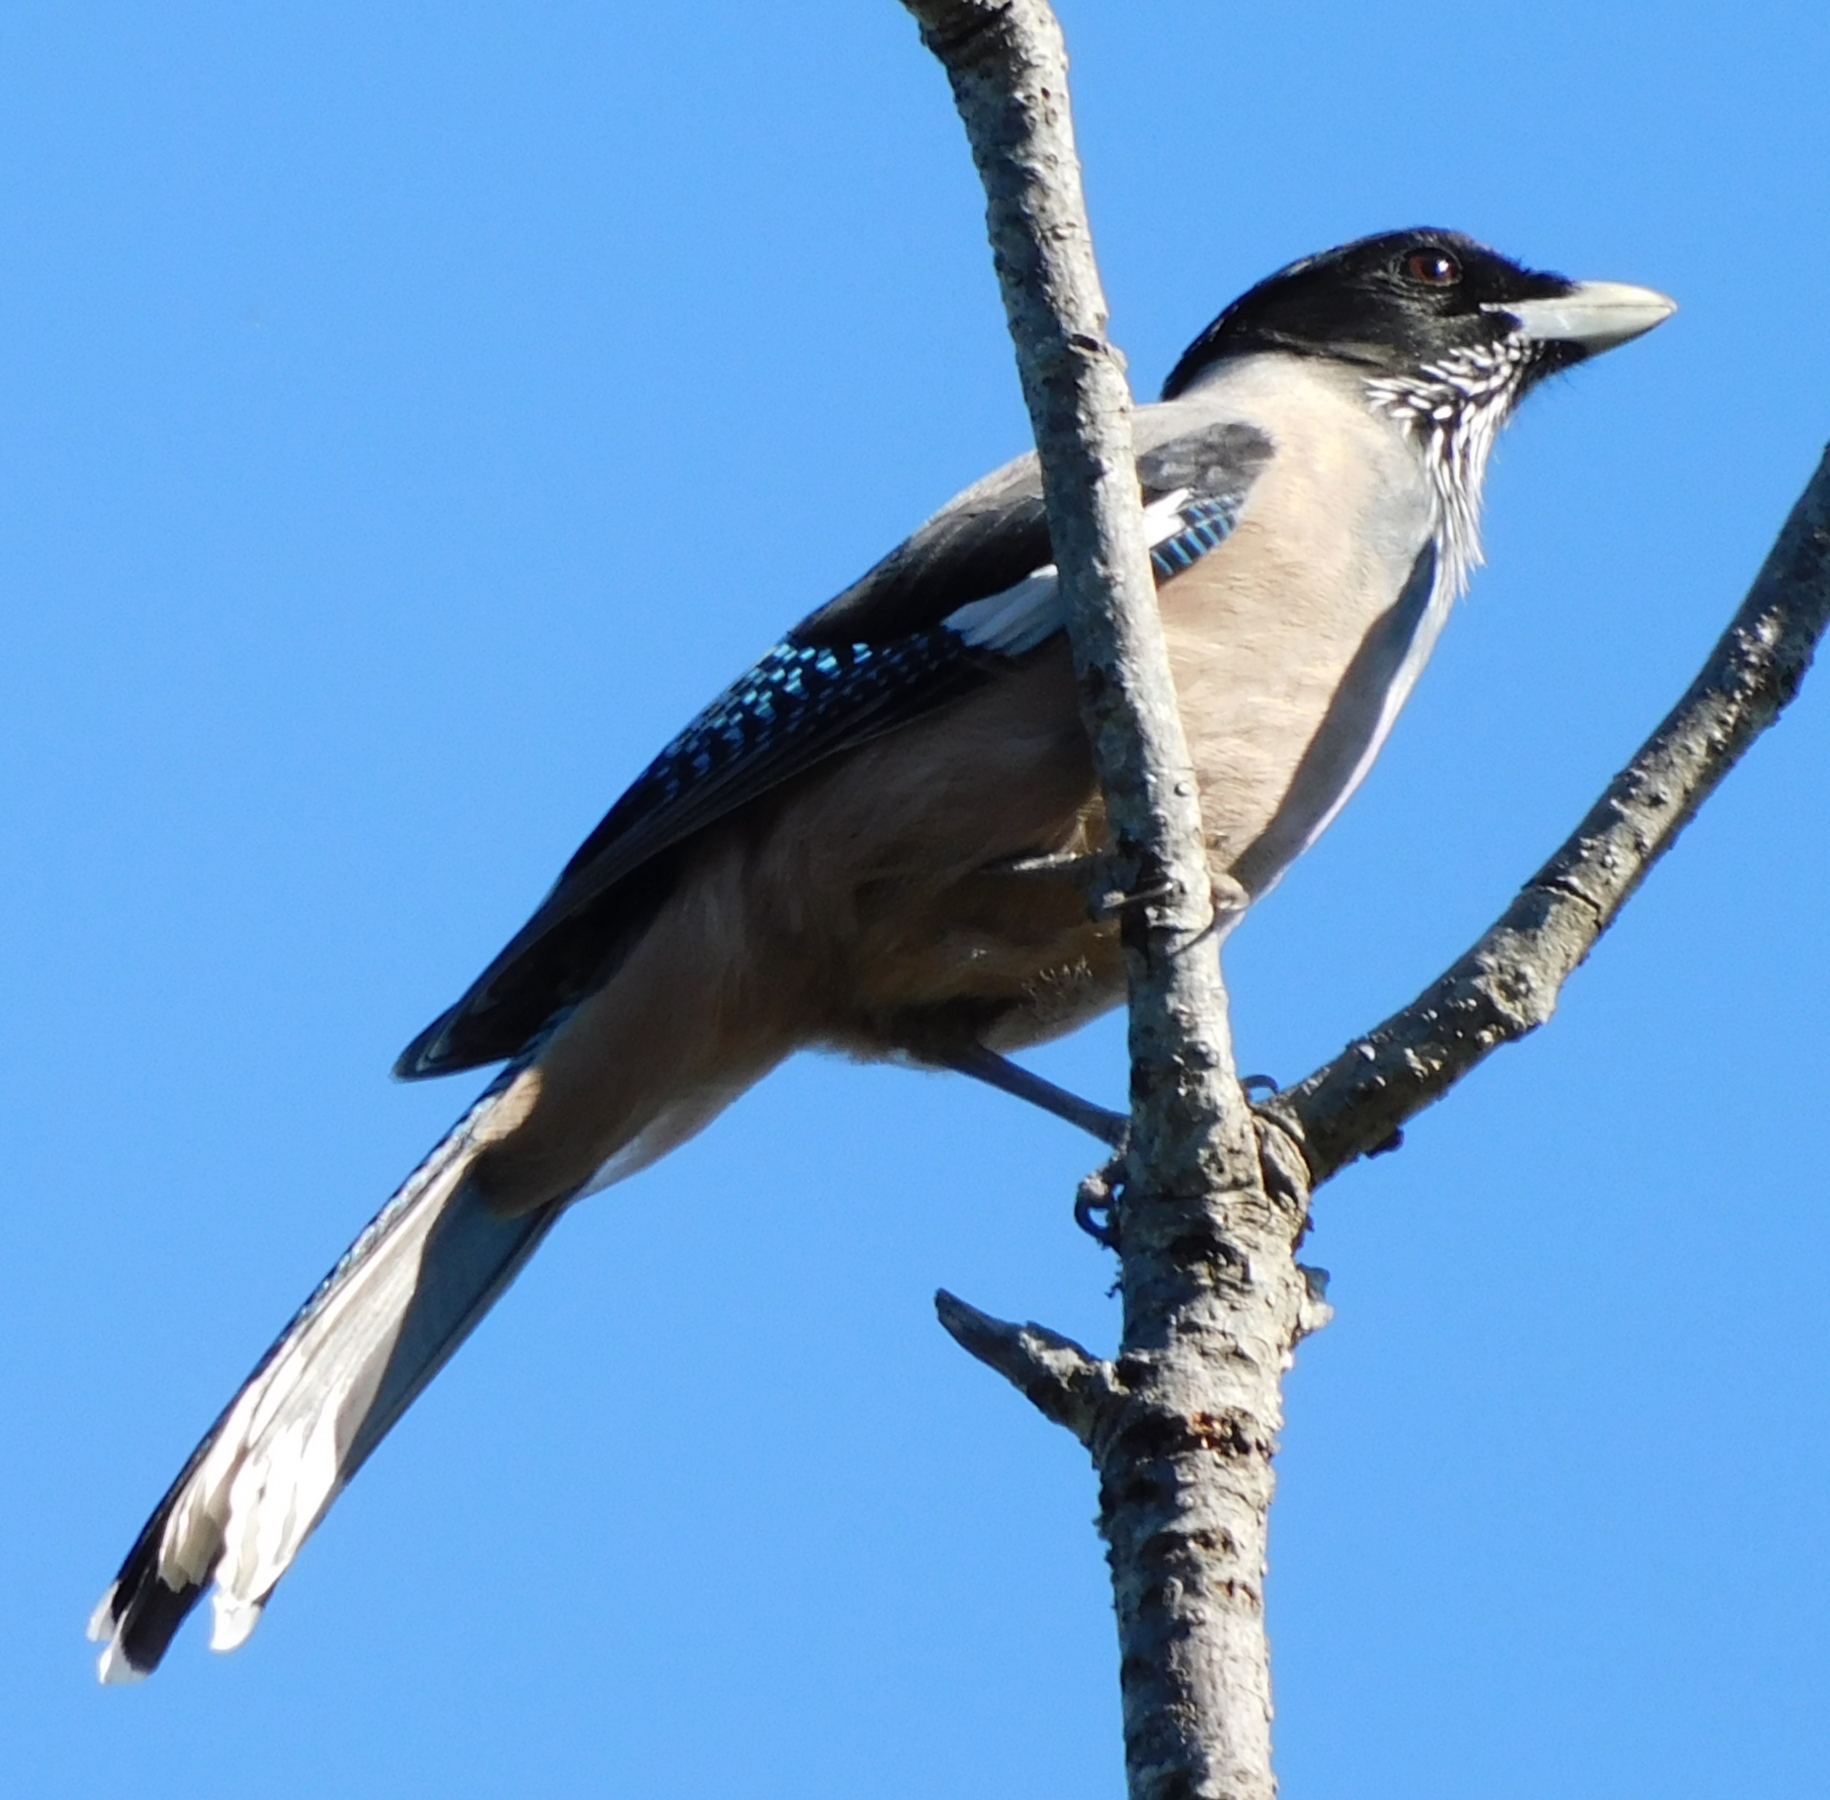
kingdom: Animalia
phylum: Chordata
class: Aves
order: Passeriformes
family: Corvidae
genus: Garrulus
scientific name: Garrulus lanceolatus
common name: Black-headed jay
